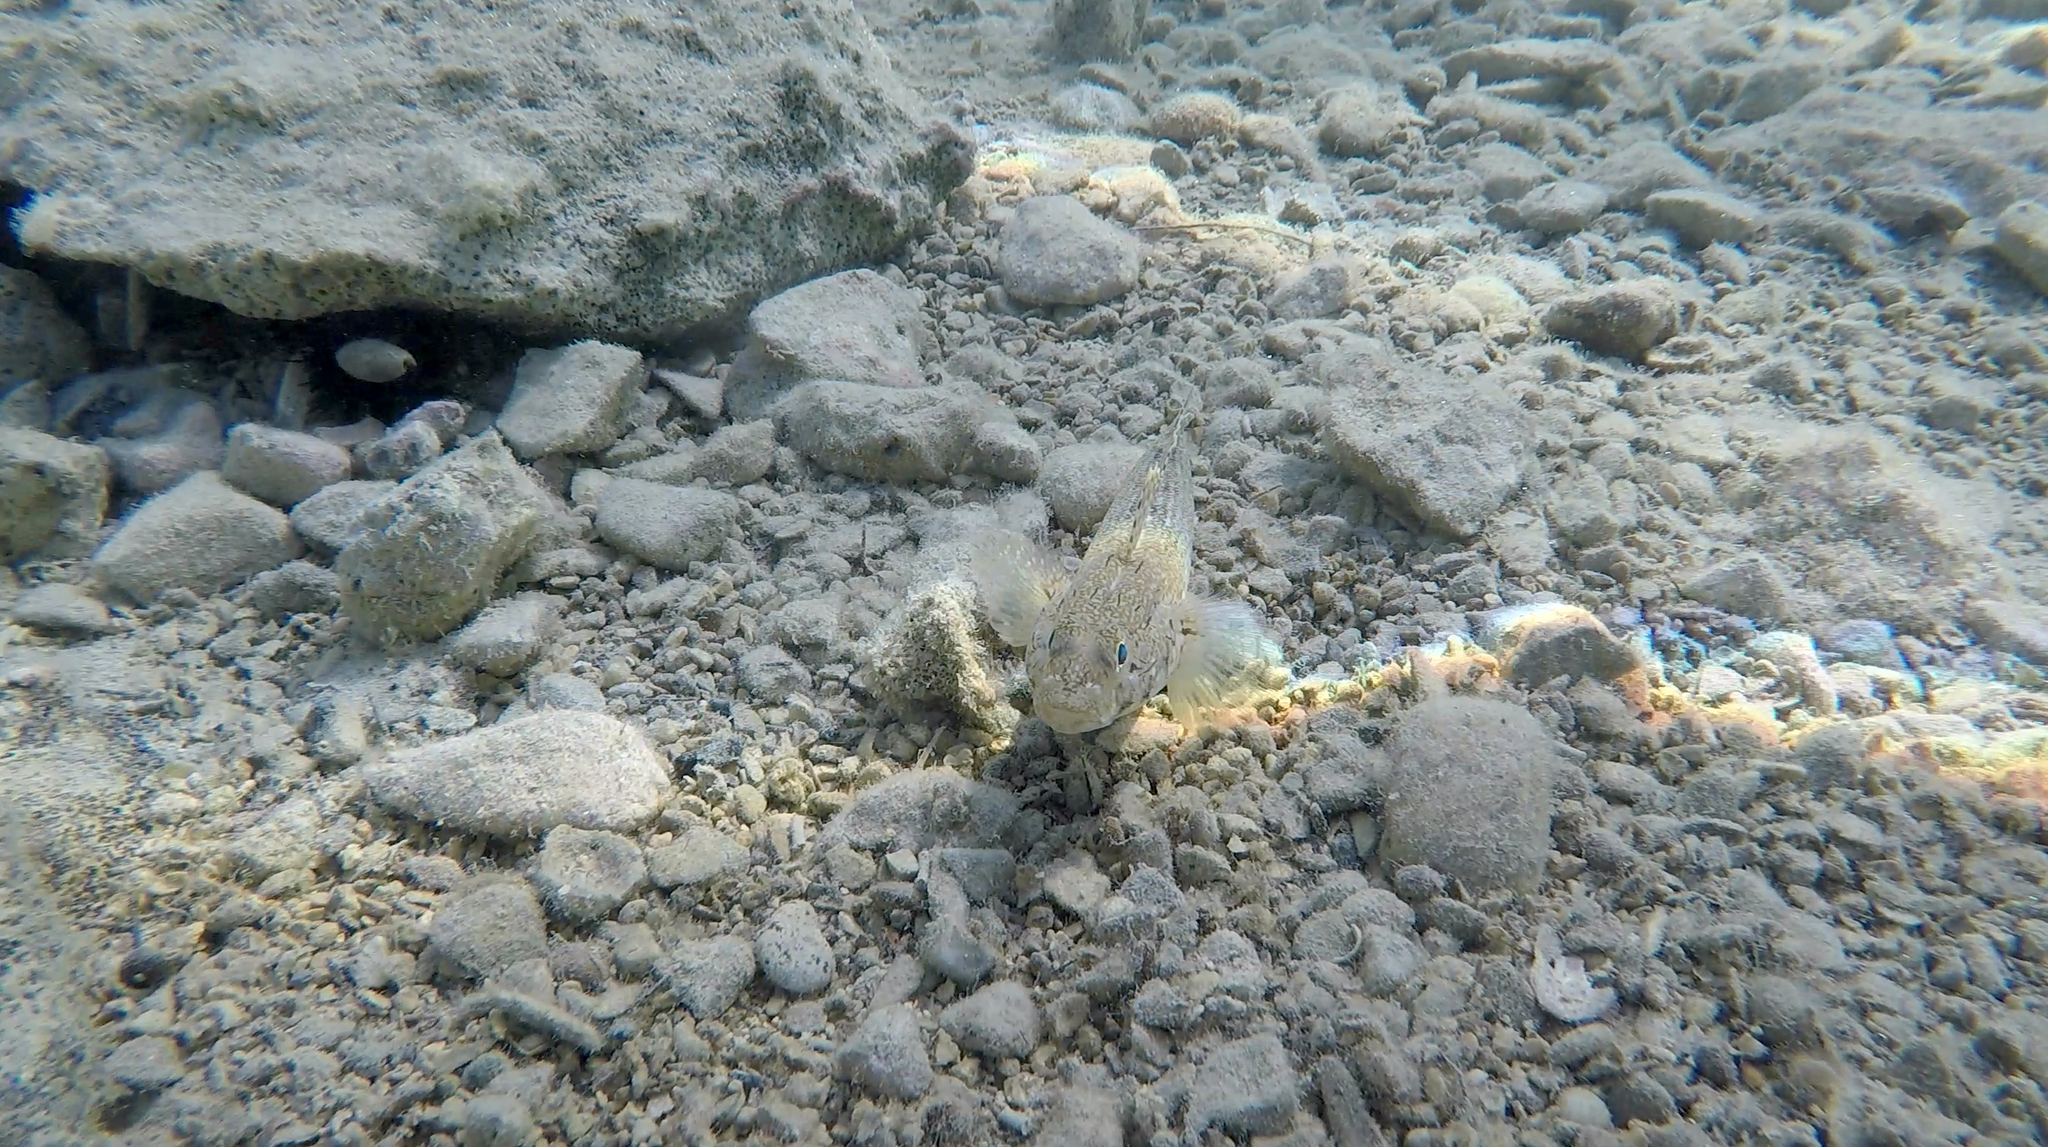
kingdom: Animalia
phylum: Chordata
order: Perciformes
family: Gobiidae
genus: Gobius
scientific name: Gobius geniporus
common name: Slender goby
